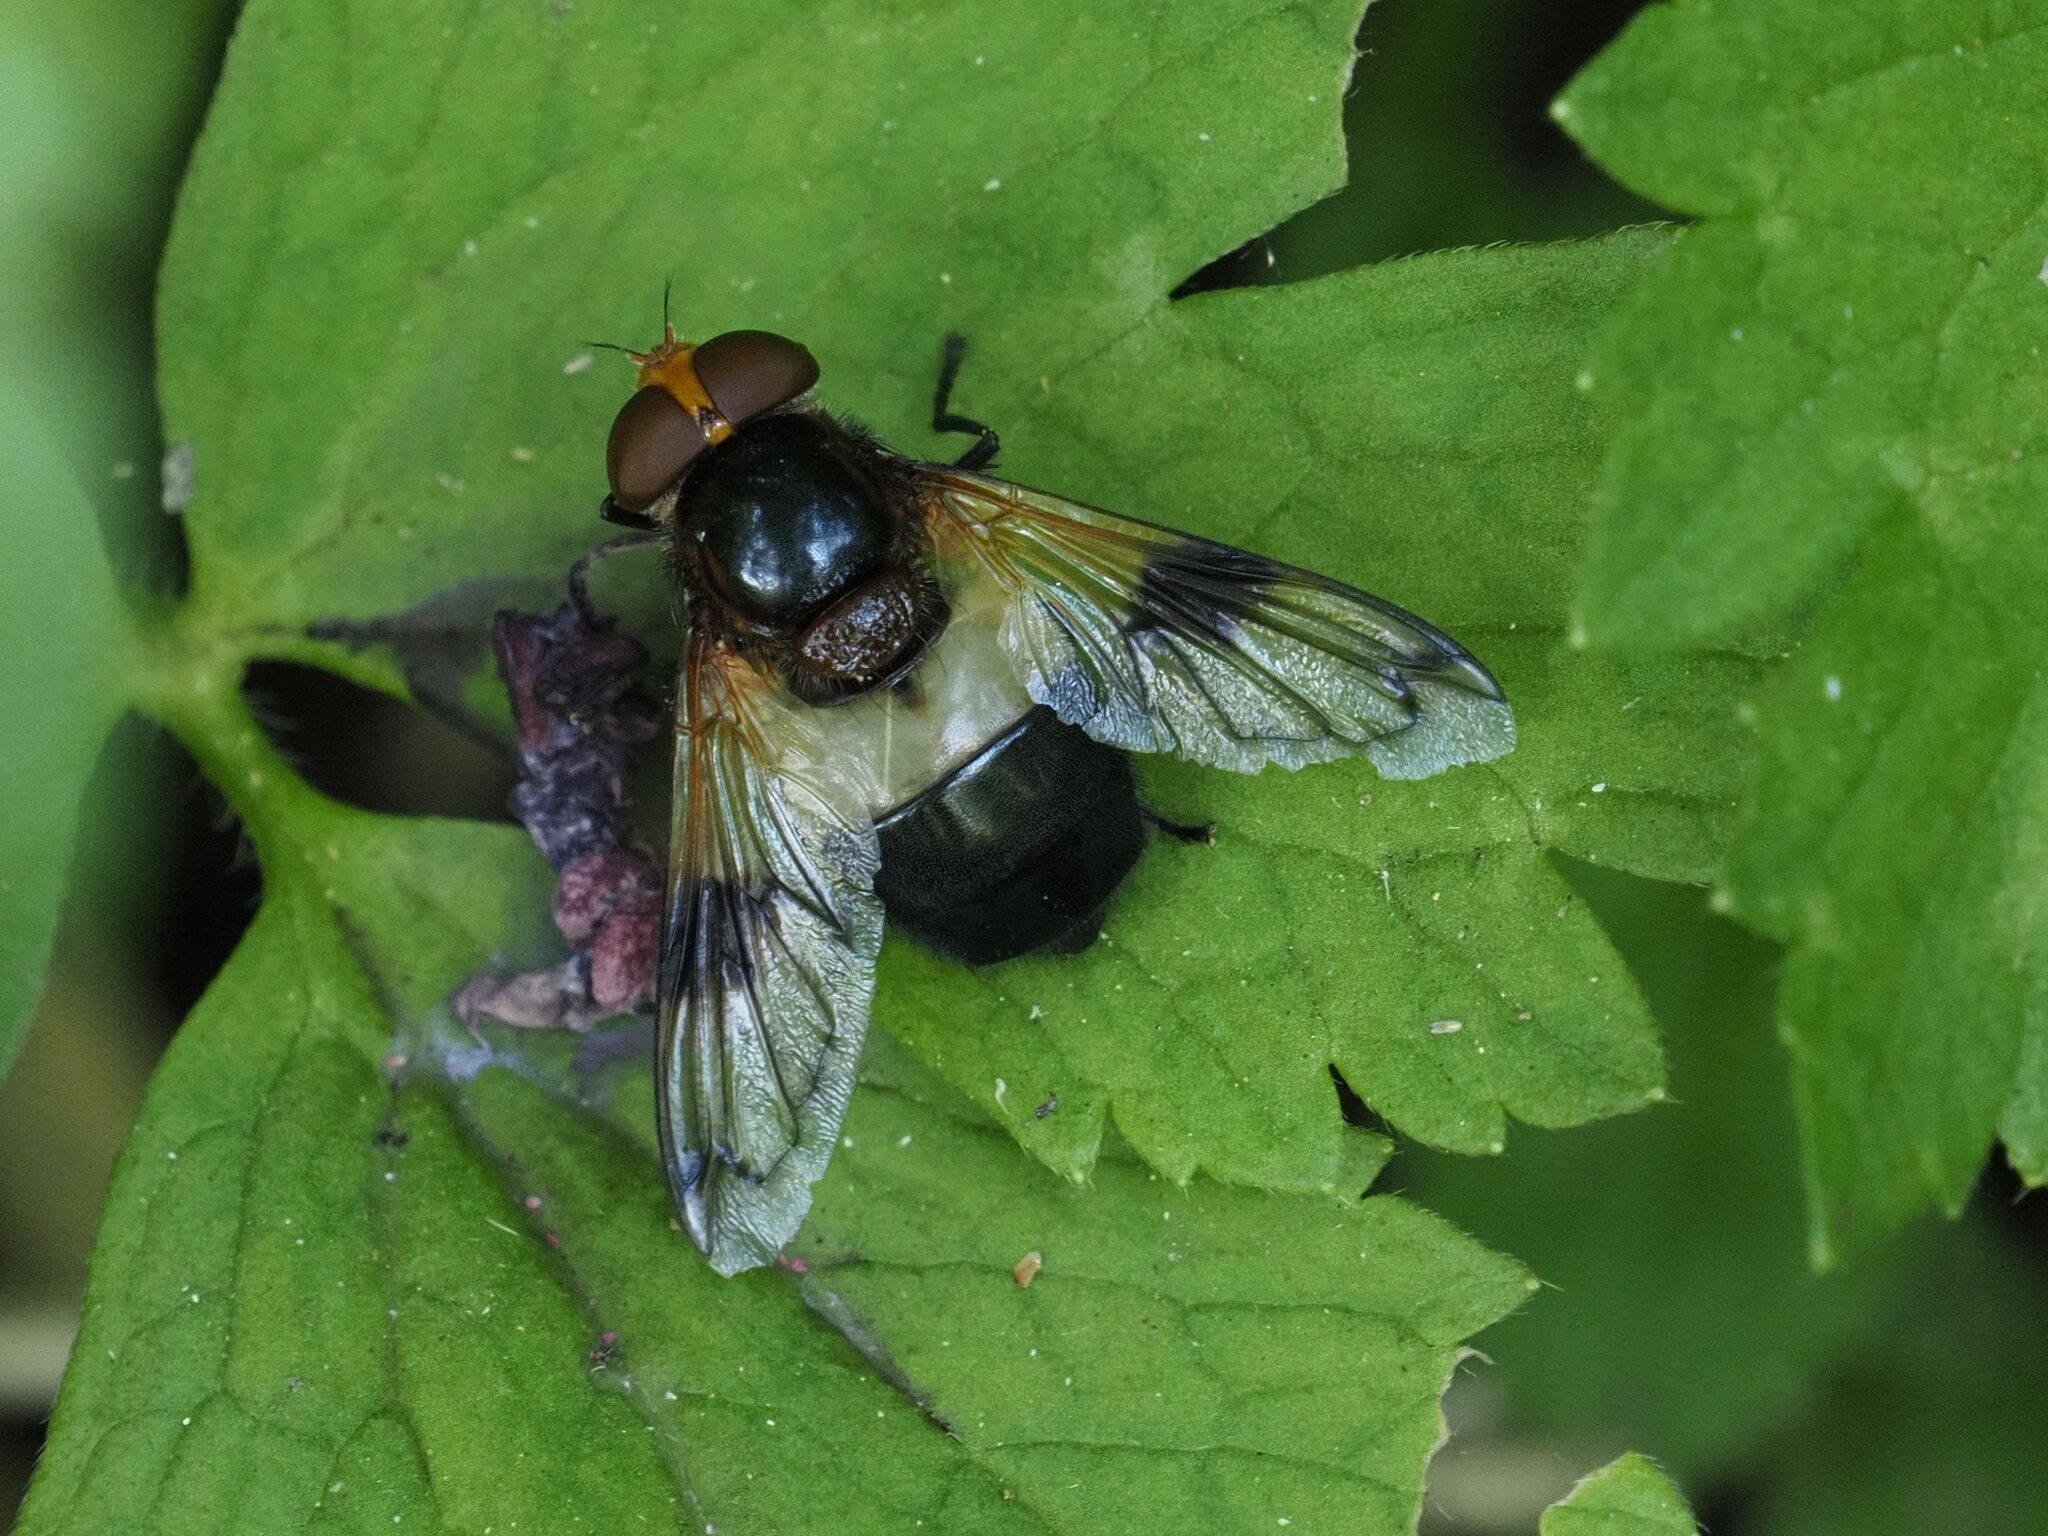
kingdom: Animalia
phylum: Arthropoda
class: Insecta
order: Diptera
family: Syrphidae
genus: Volucella
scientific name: Volucella pellucens
